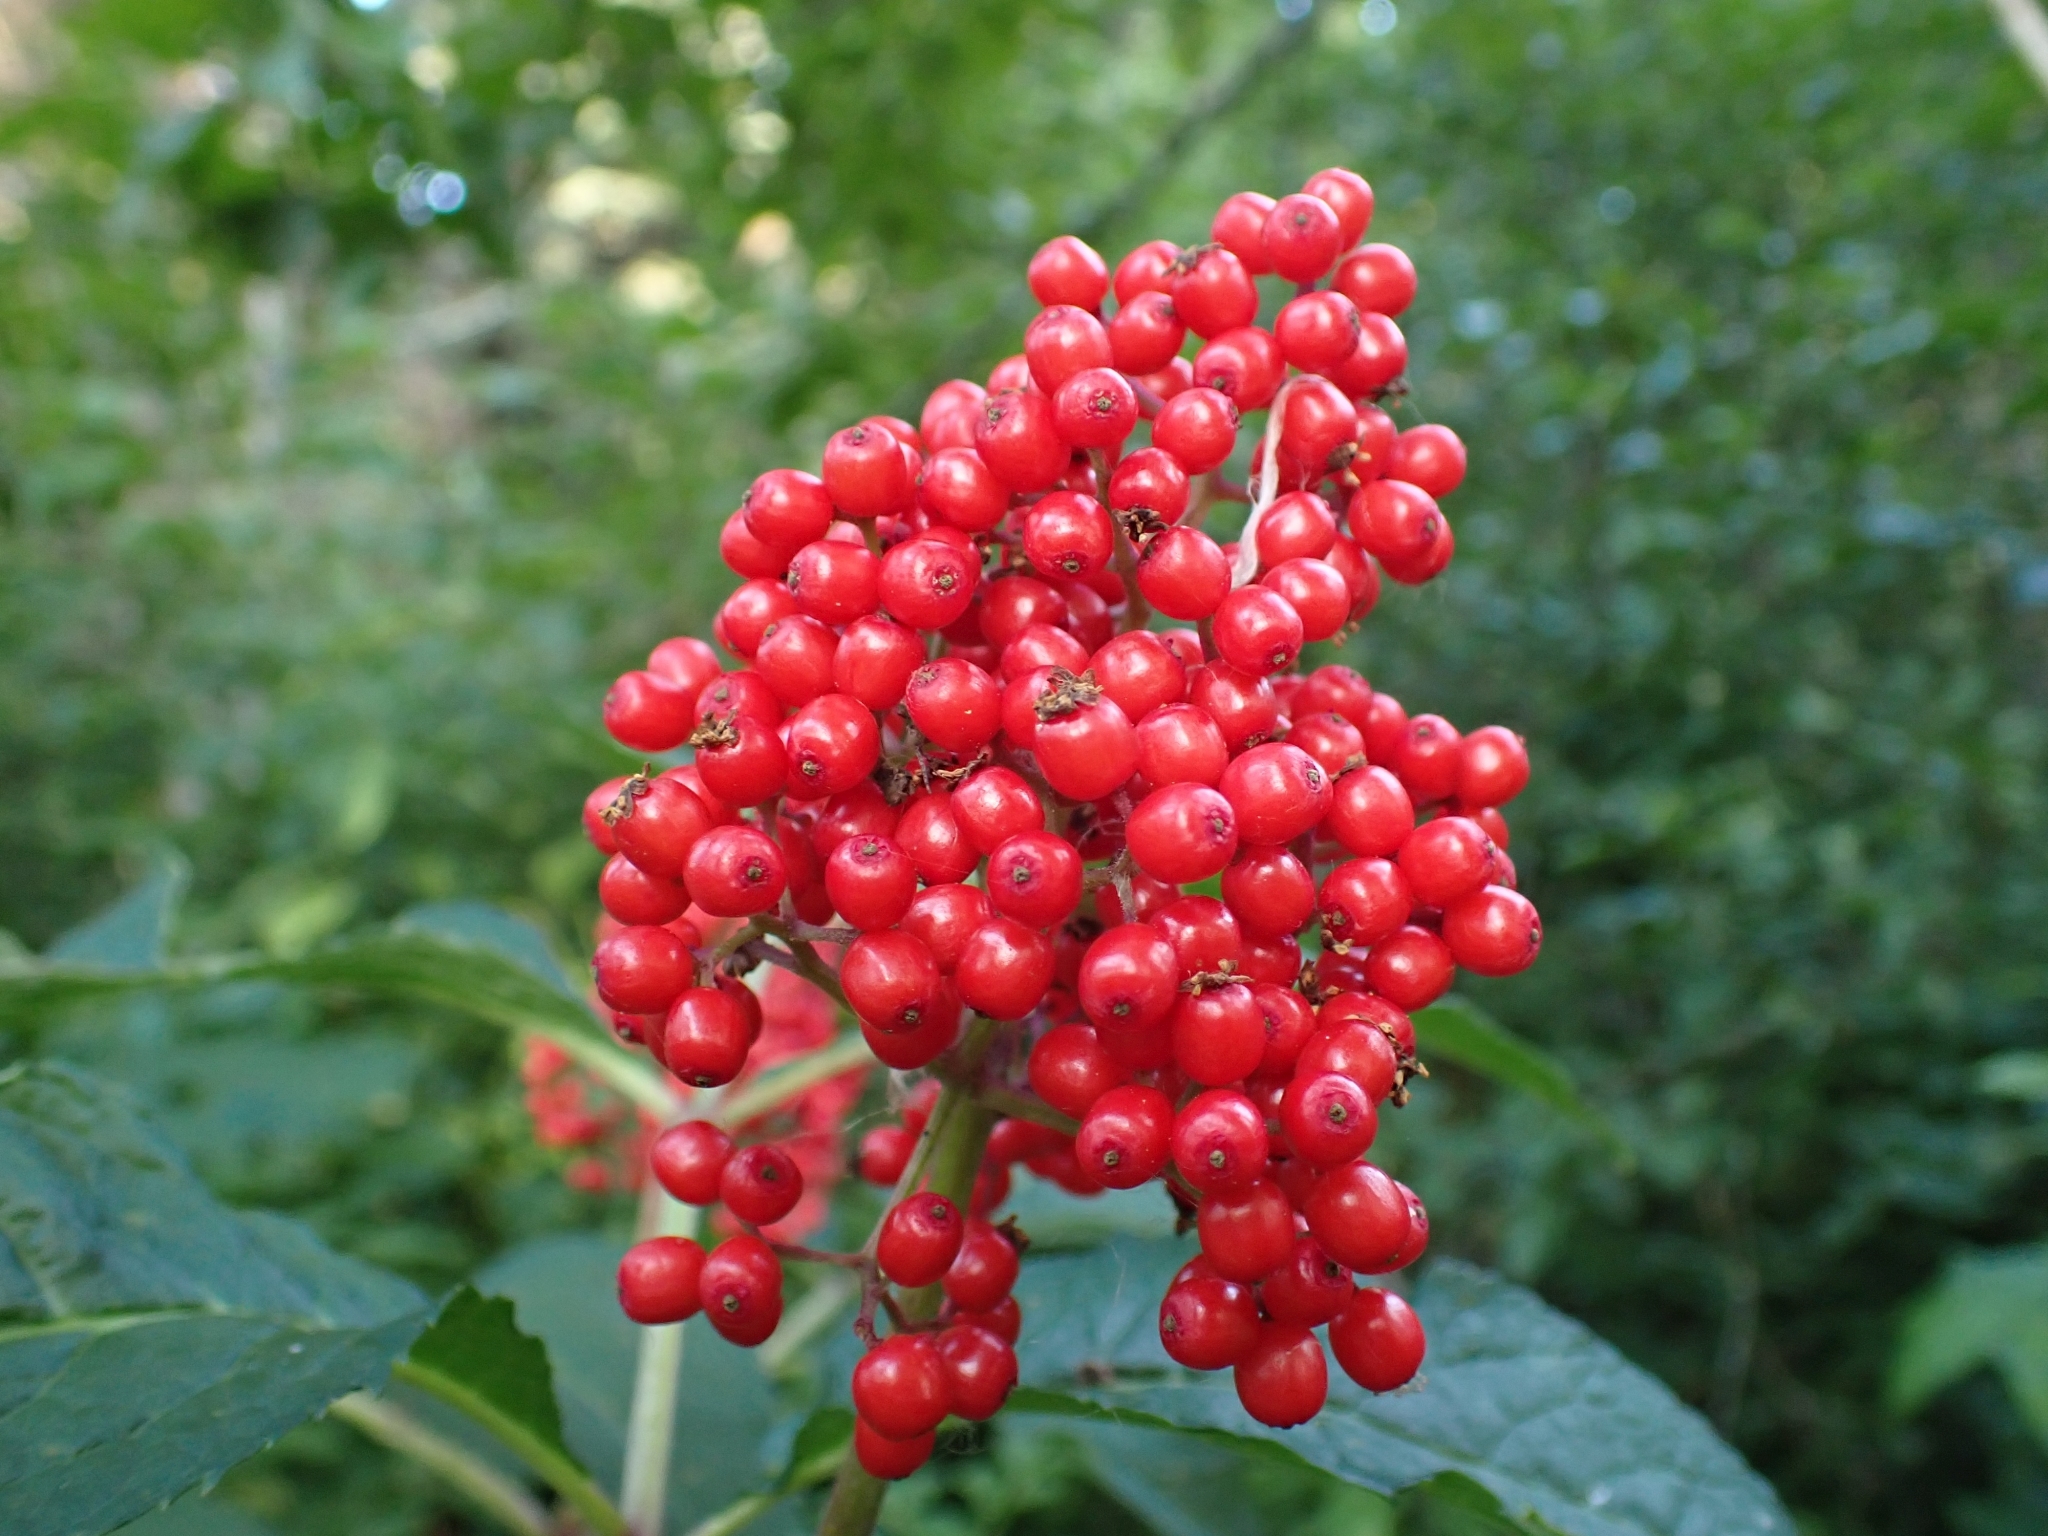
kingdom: Plantae
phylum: Tracheophyta
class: Magnoliopsida
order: Dipsacales
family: Viburnaceae
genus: Sambucus
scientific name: Sambucus racemosa
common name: Red-berried elder
